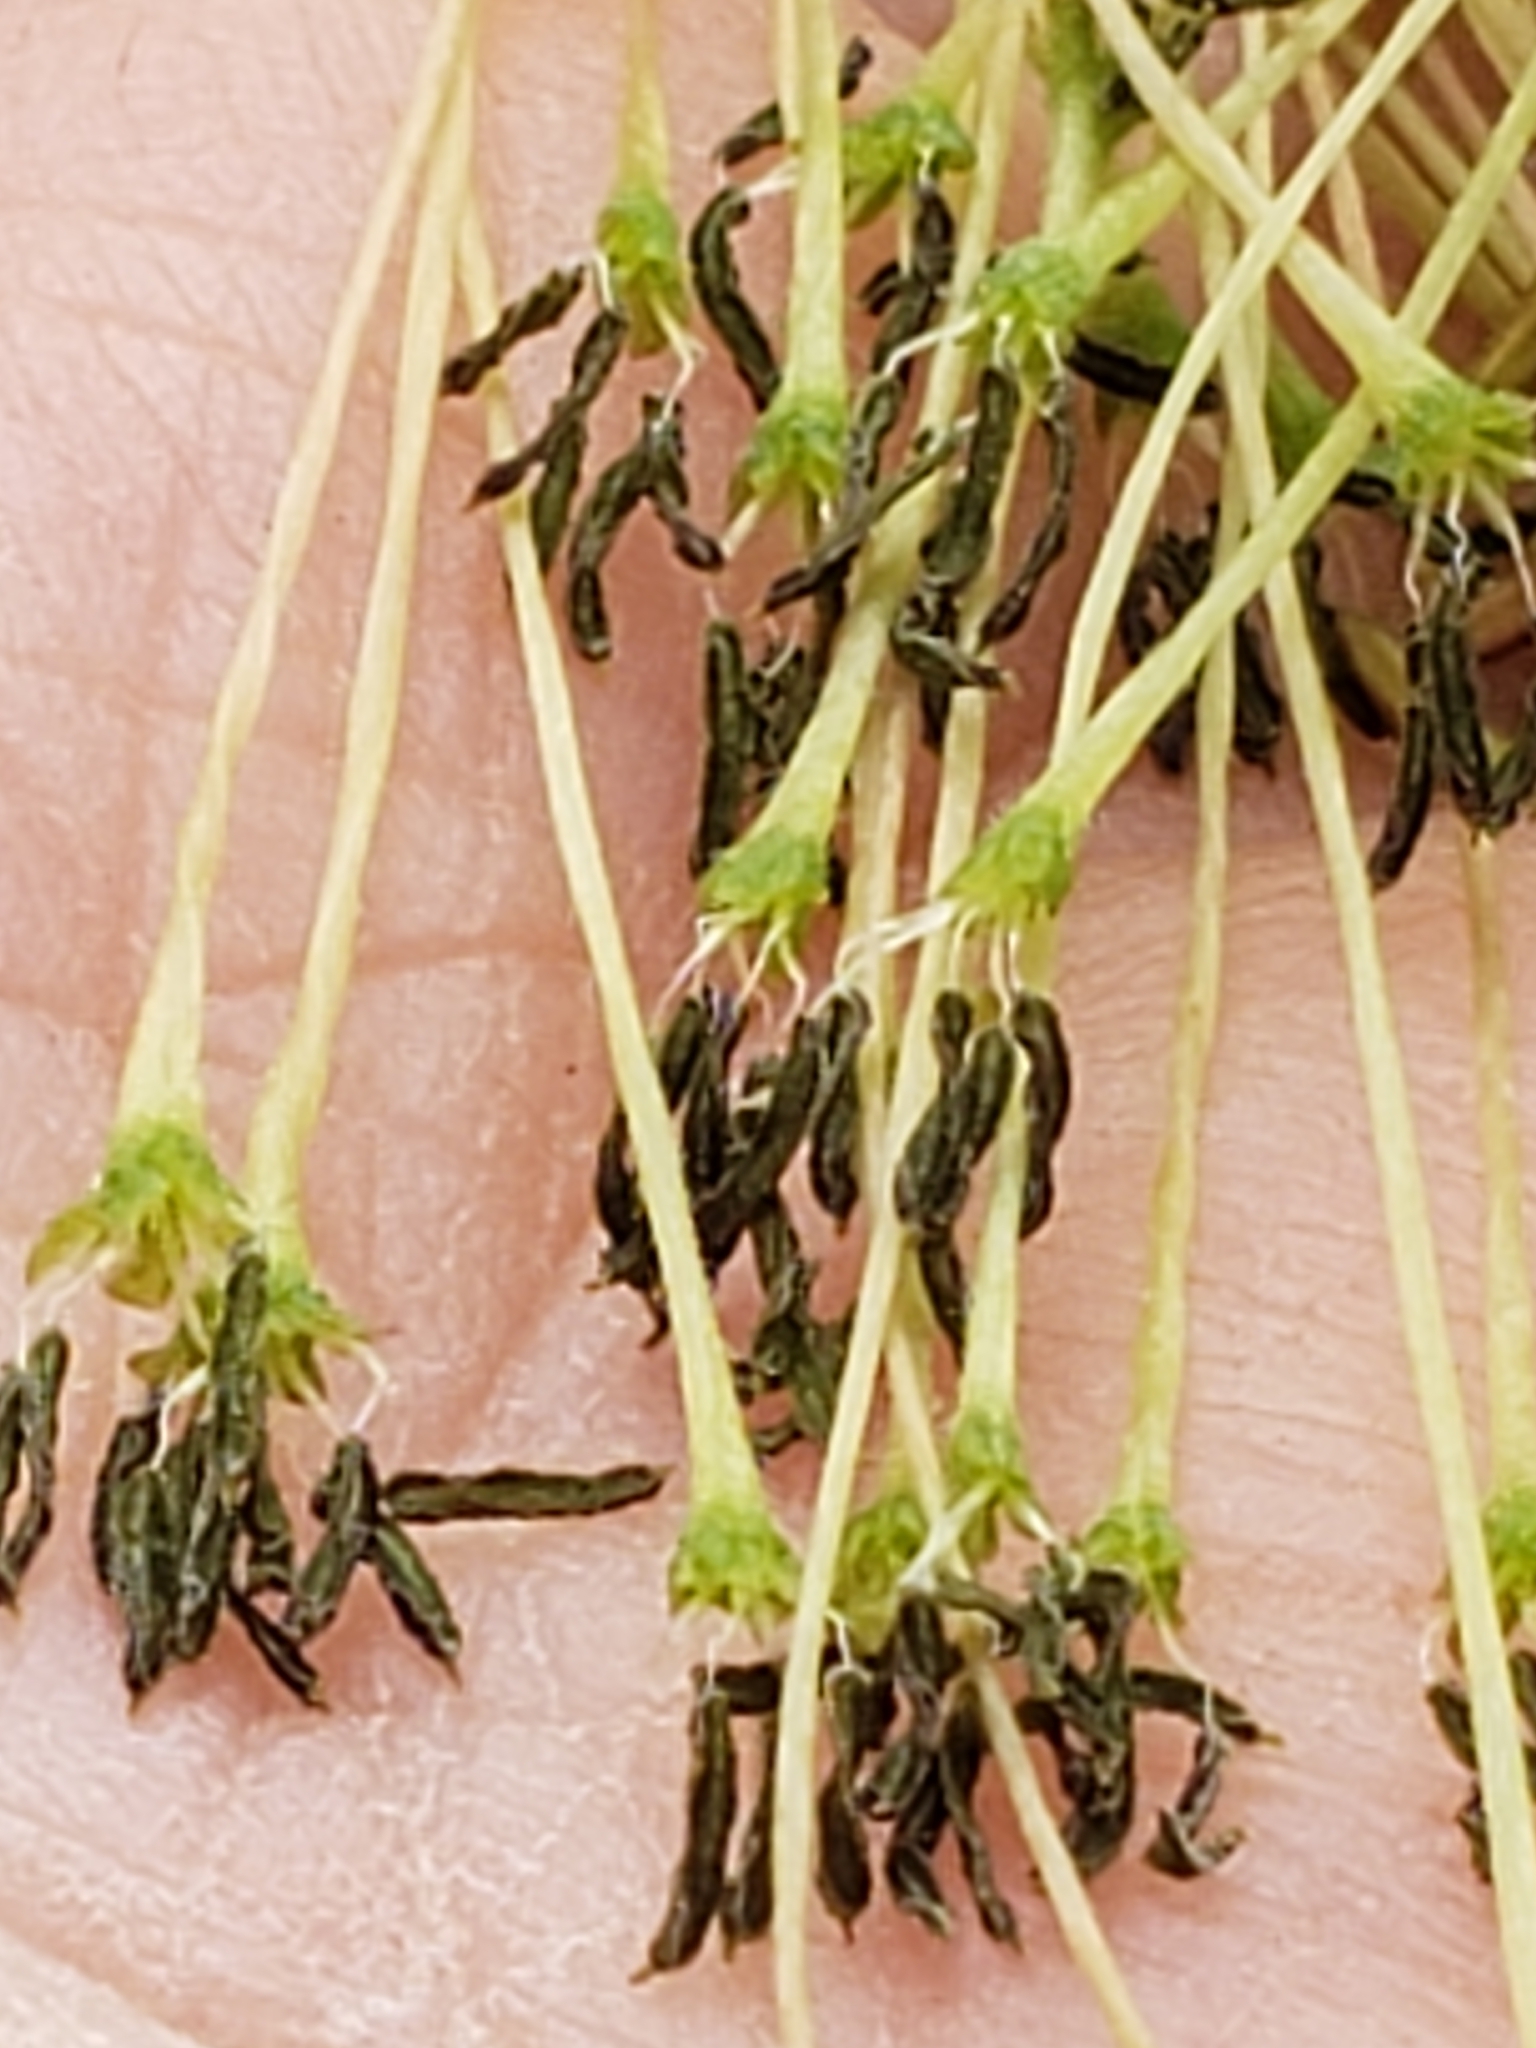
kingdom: Plantae
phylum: Tracheophyta
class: Magnoliopsida
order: Sapindales
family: Sapindaceae
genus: Acer
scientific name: Acer negundo
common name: Ashleaf maple
